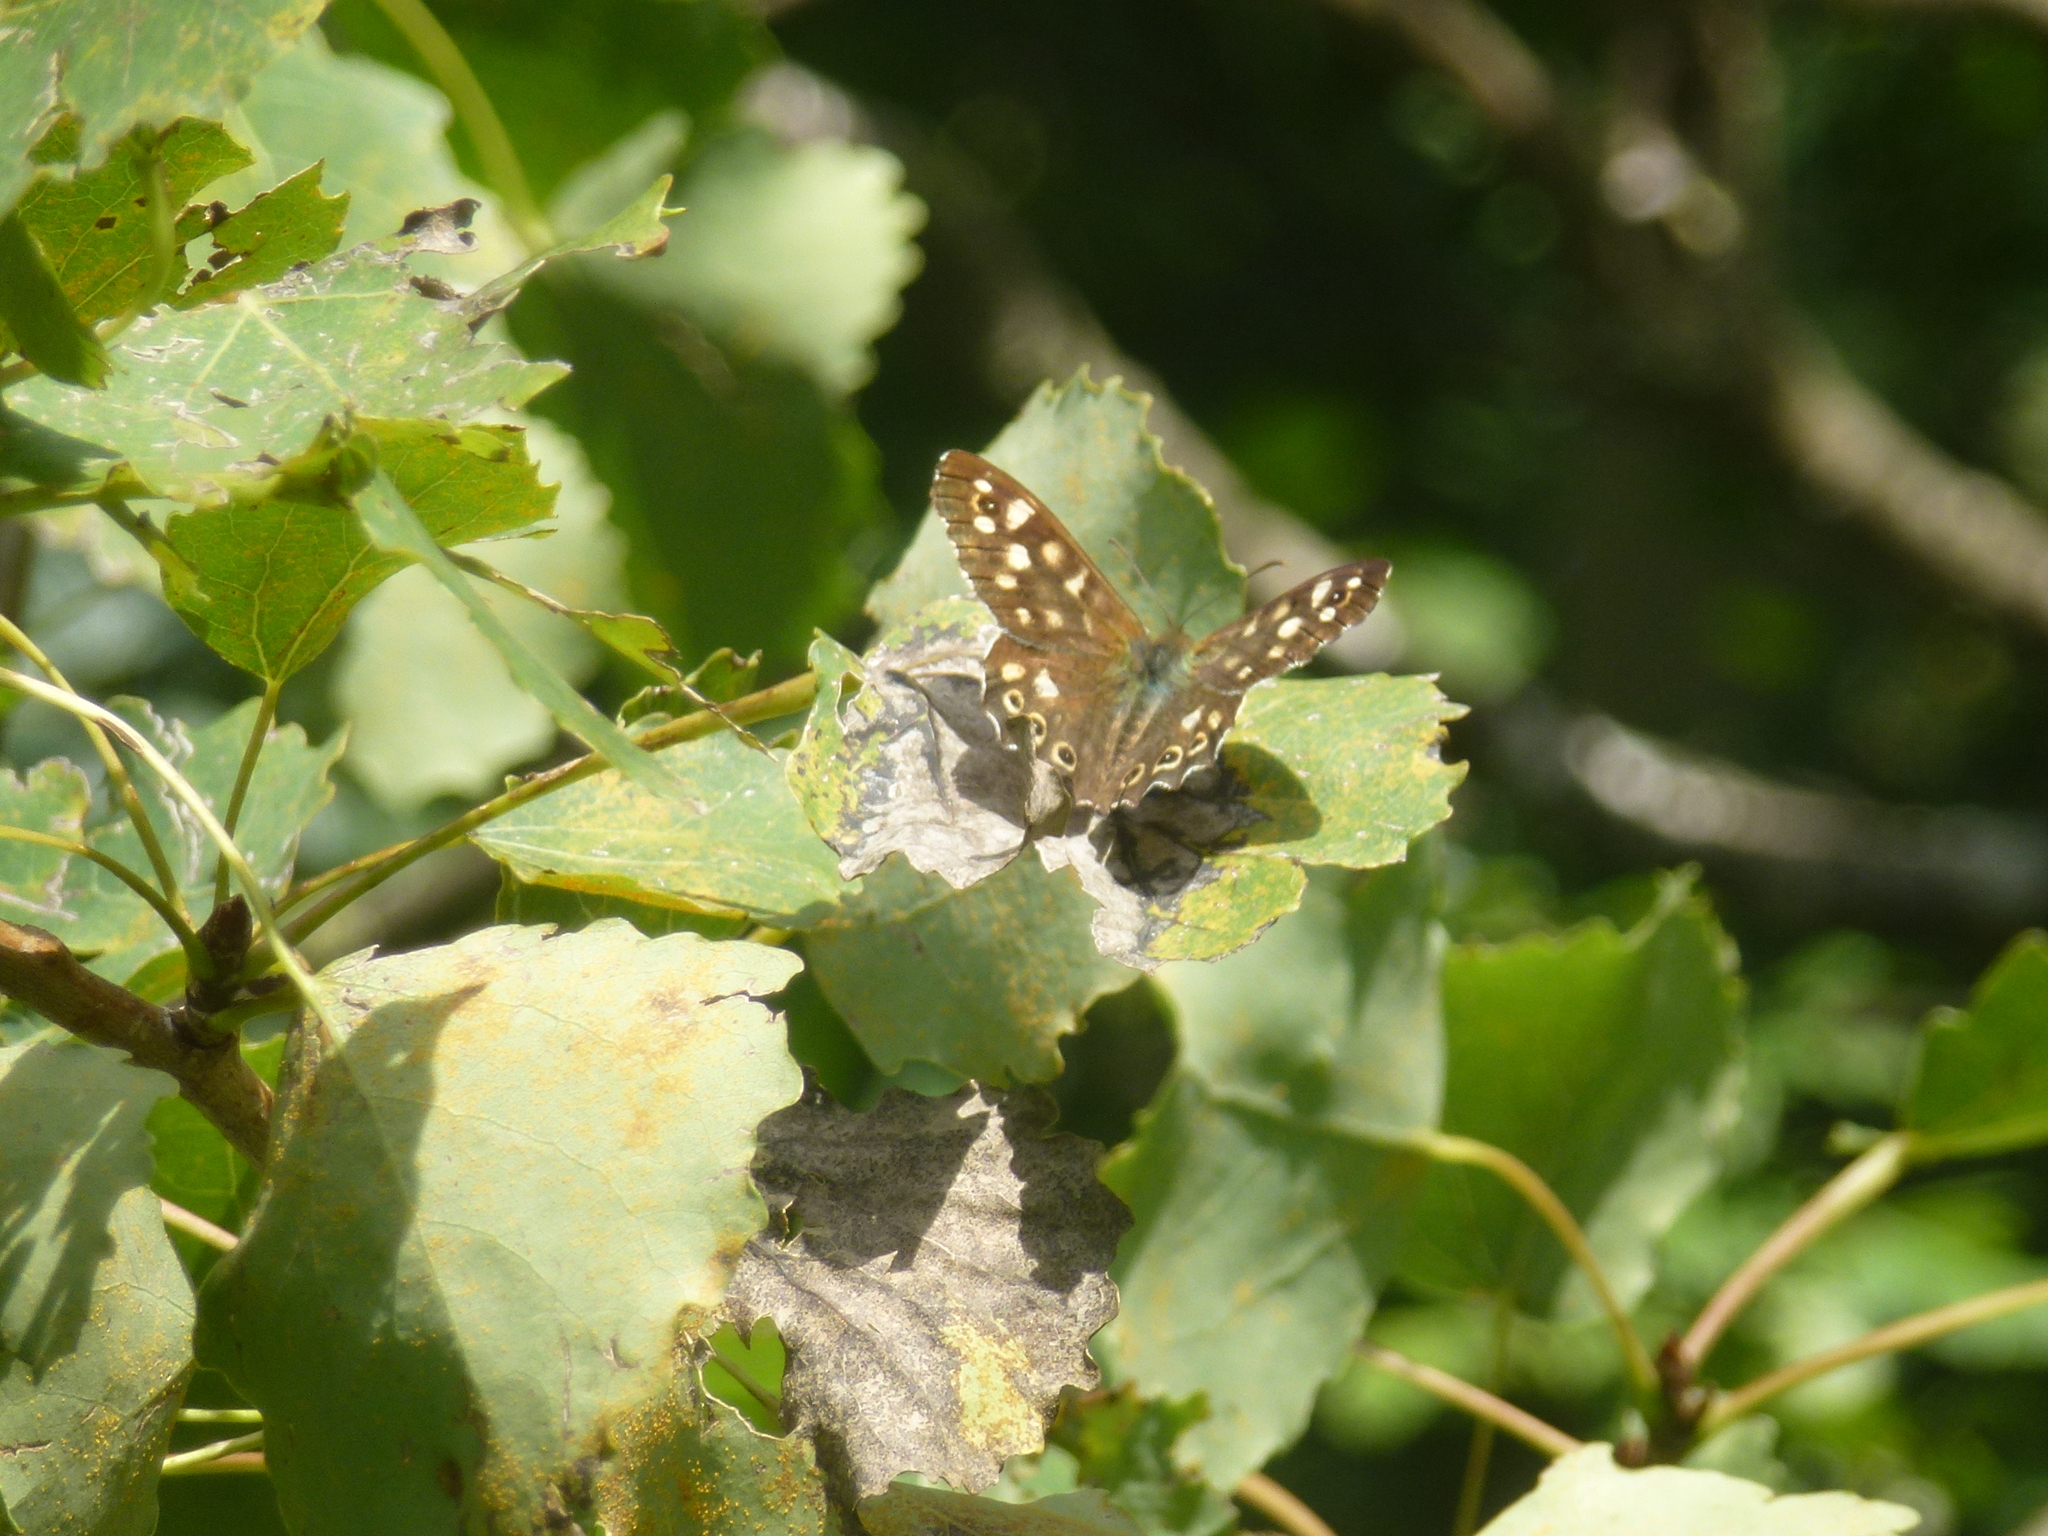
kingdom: Animalia
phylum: Arthropoda
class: Insecta
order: Lepidoptera
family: Nymphalidae
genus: Pararge
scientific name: Pararge aegeria
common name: Speckled wood
